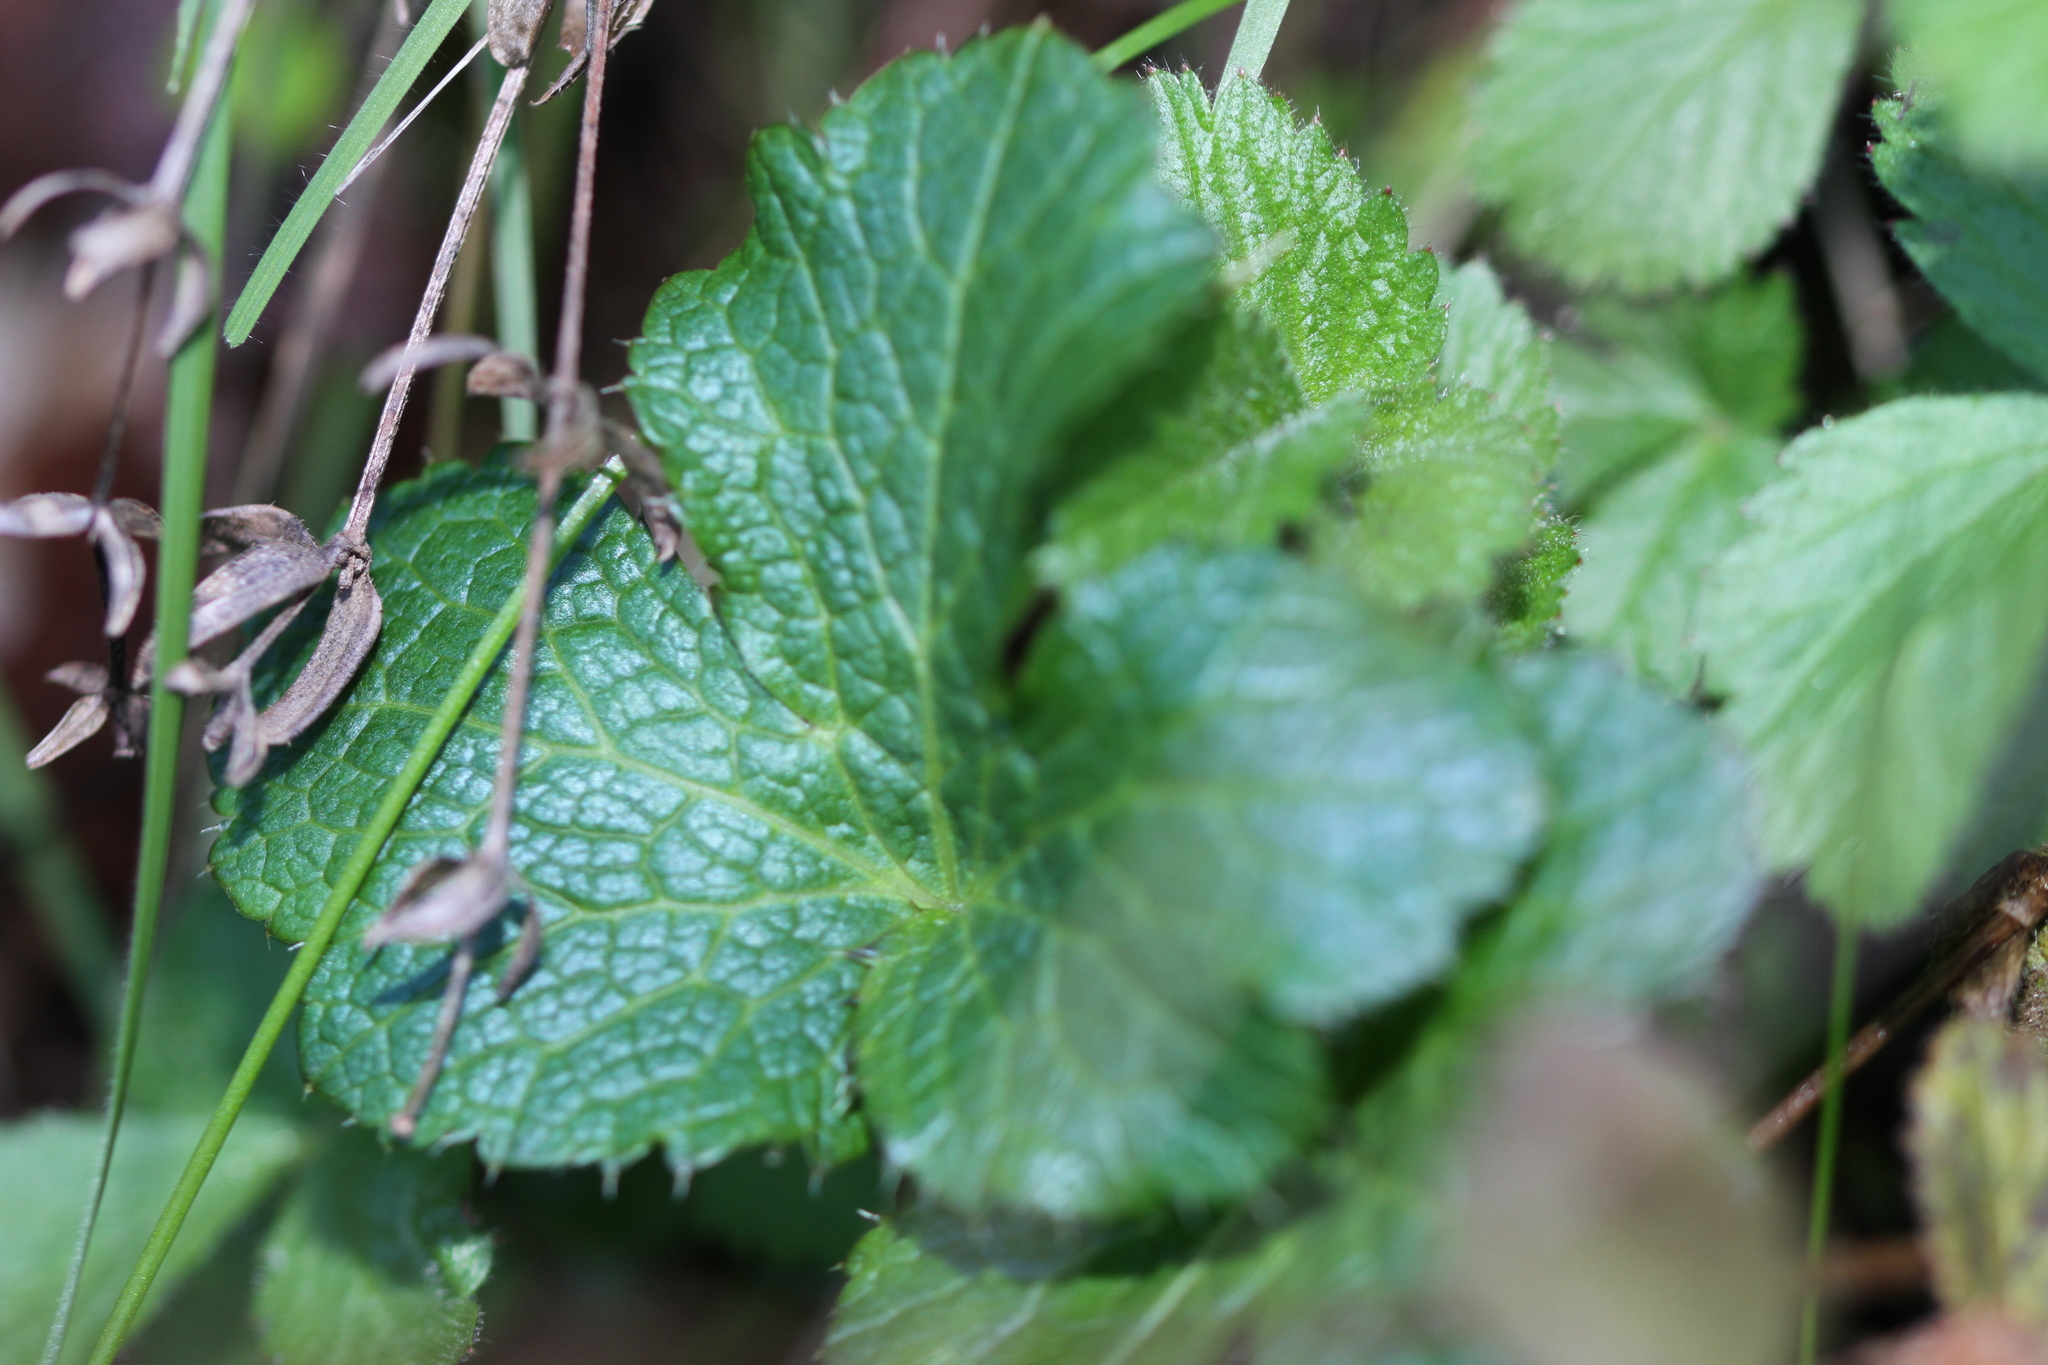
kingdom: Plantae
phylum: Tracheophyta
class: Magnoliopsida
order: Apiales
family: Apiaceae
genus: Sanicula
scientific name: Sanicula crassicaulis
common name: Western snakeroot
